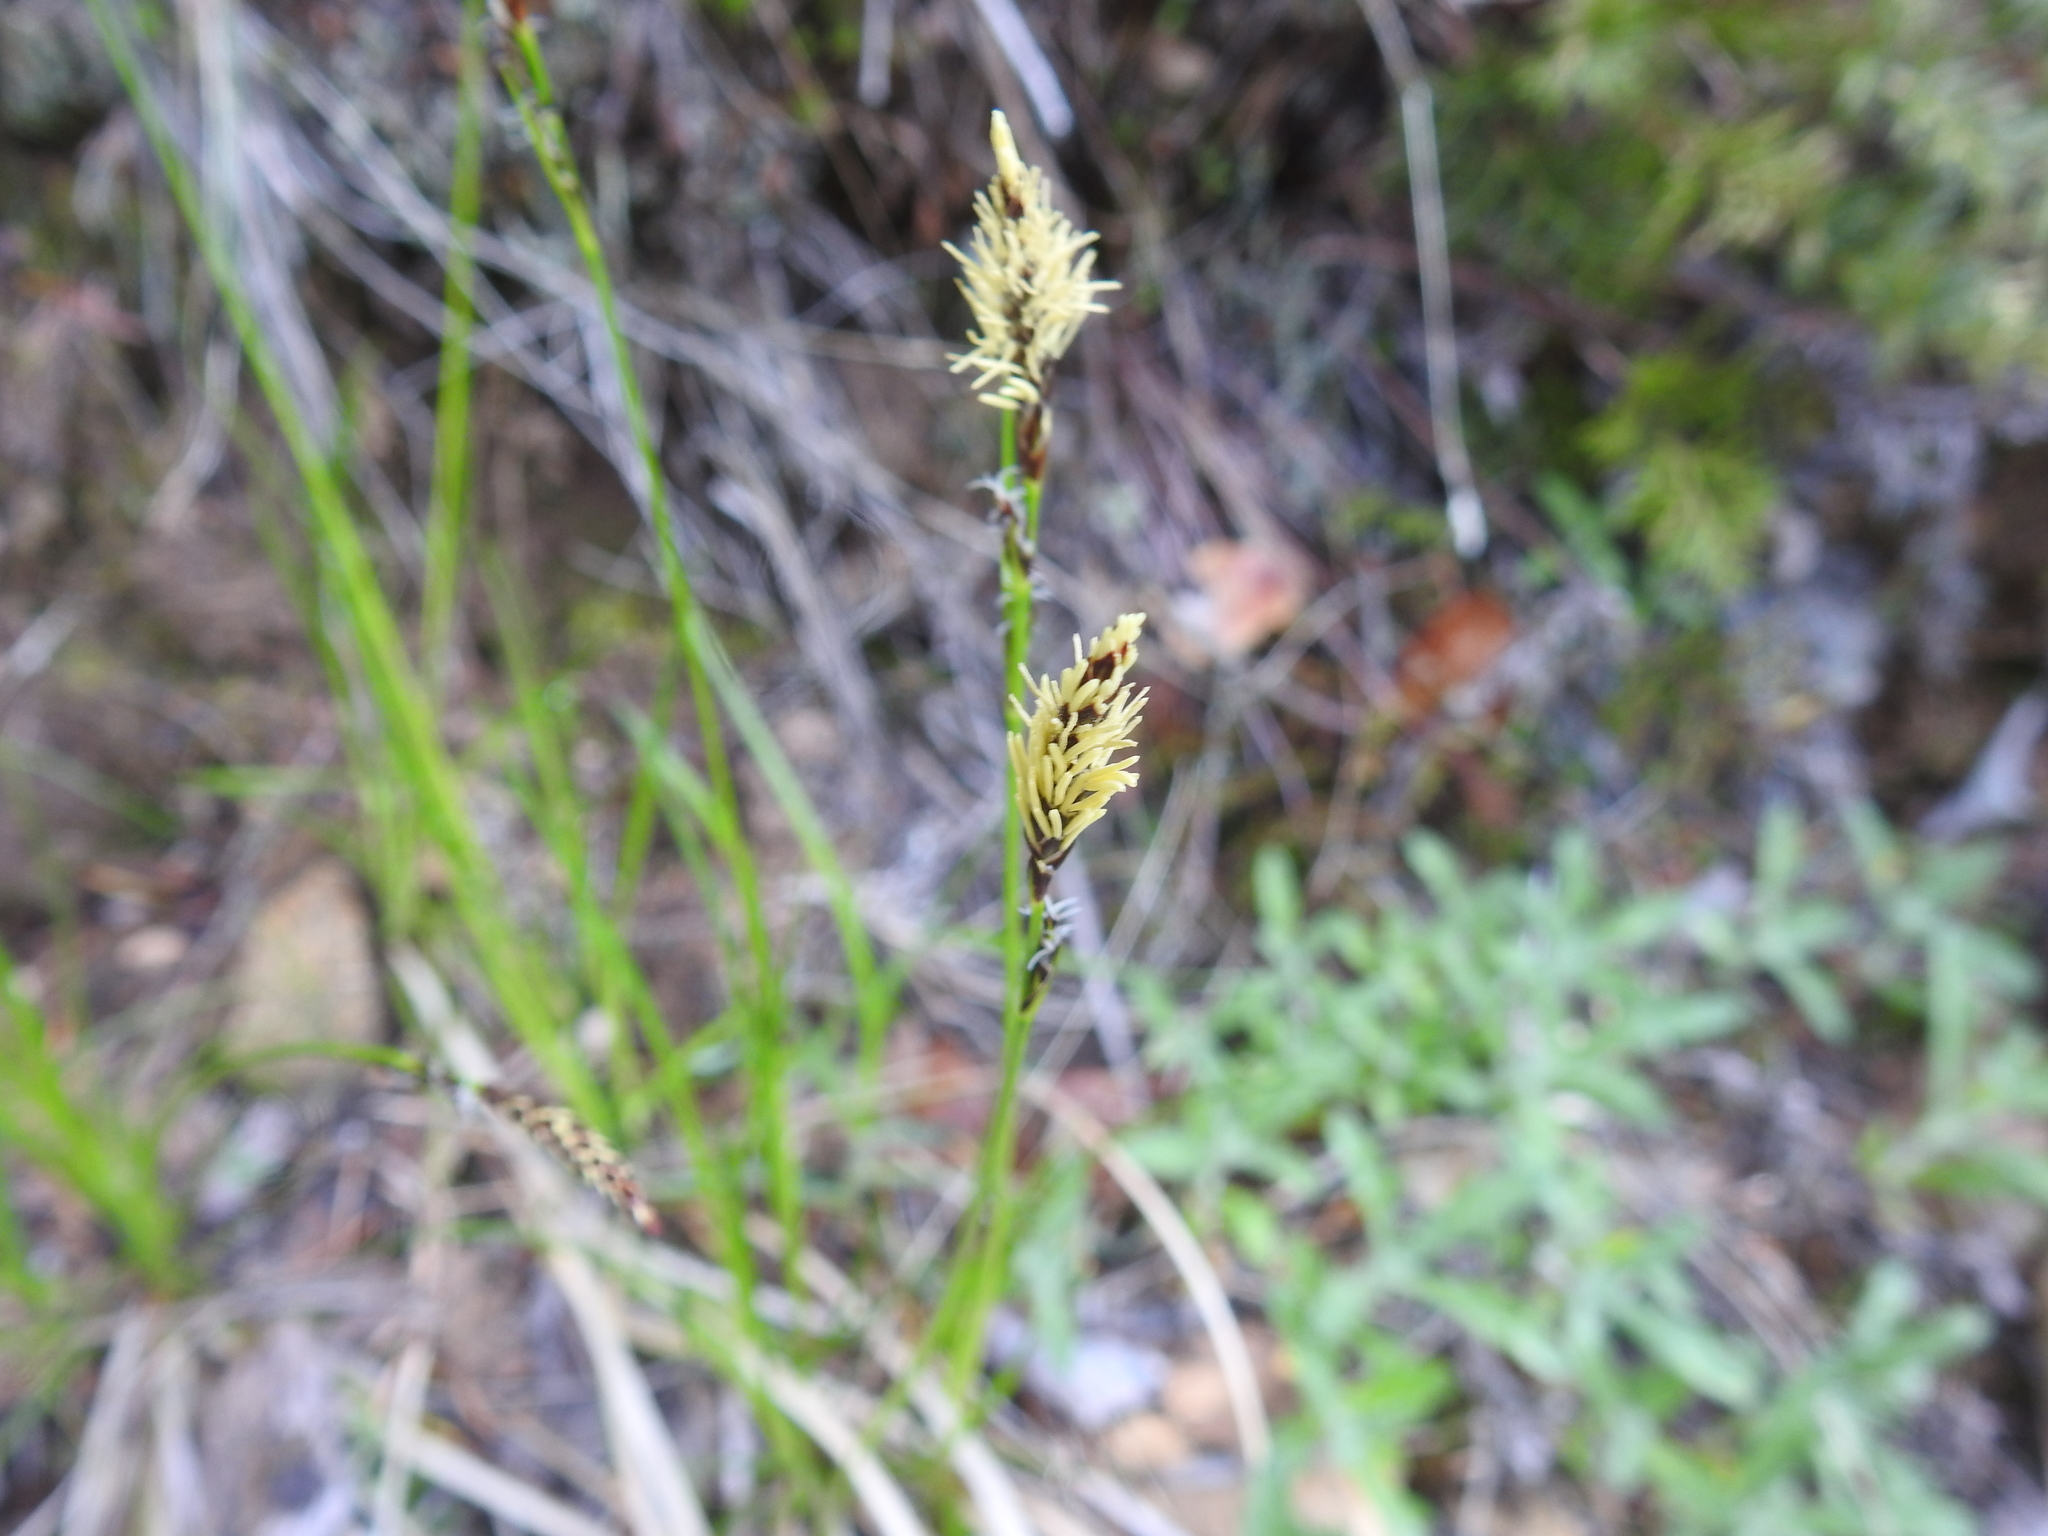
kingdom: Plantae
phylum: Tracheophyta
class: Liliopsida
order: Poales
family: Cyperaceae
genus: Carex
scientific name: Carex inops
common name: Long-stolon sedge
